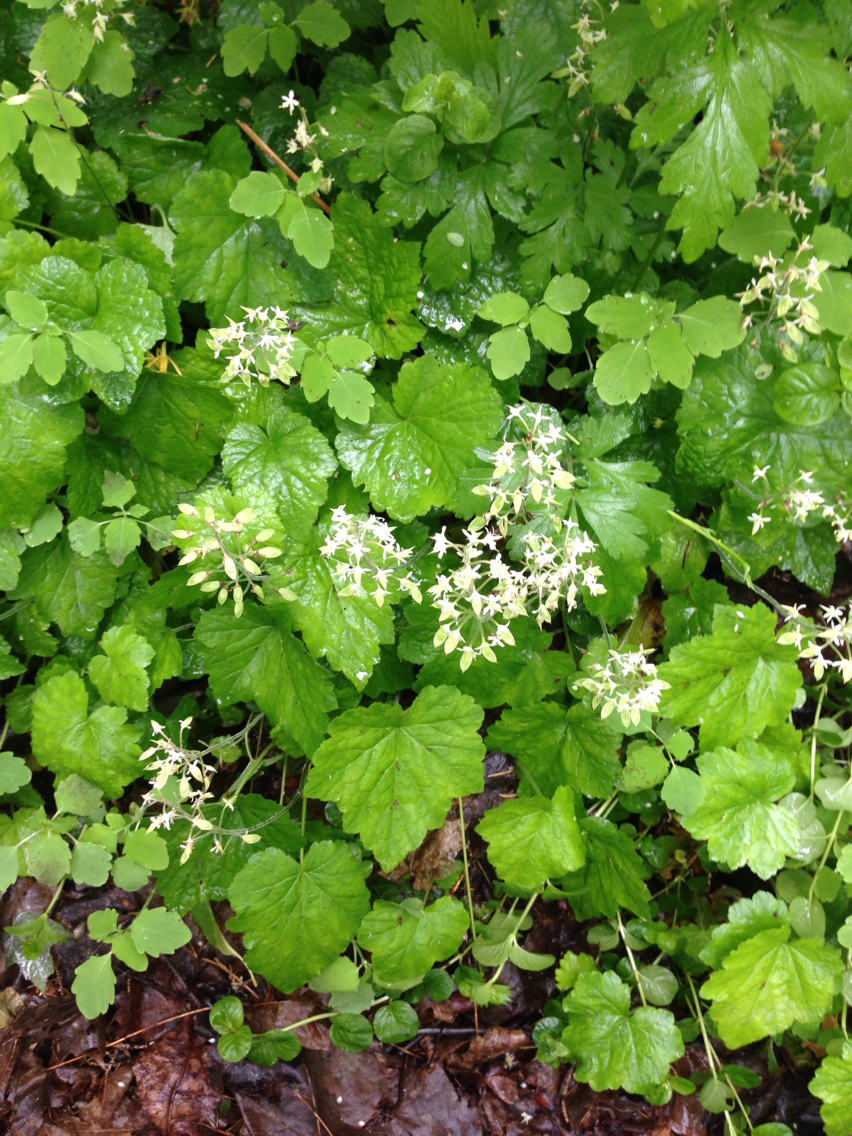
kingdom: Plantae
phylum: Tracheophyta
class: Magnoliopsida
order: Saxifragales
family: Saxifragaceae
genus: Tiarella
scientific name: Tiarella stolonifera
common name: Stoloniferous foamflower
